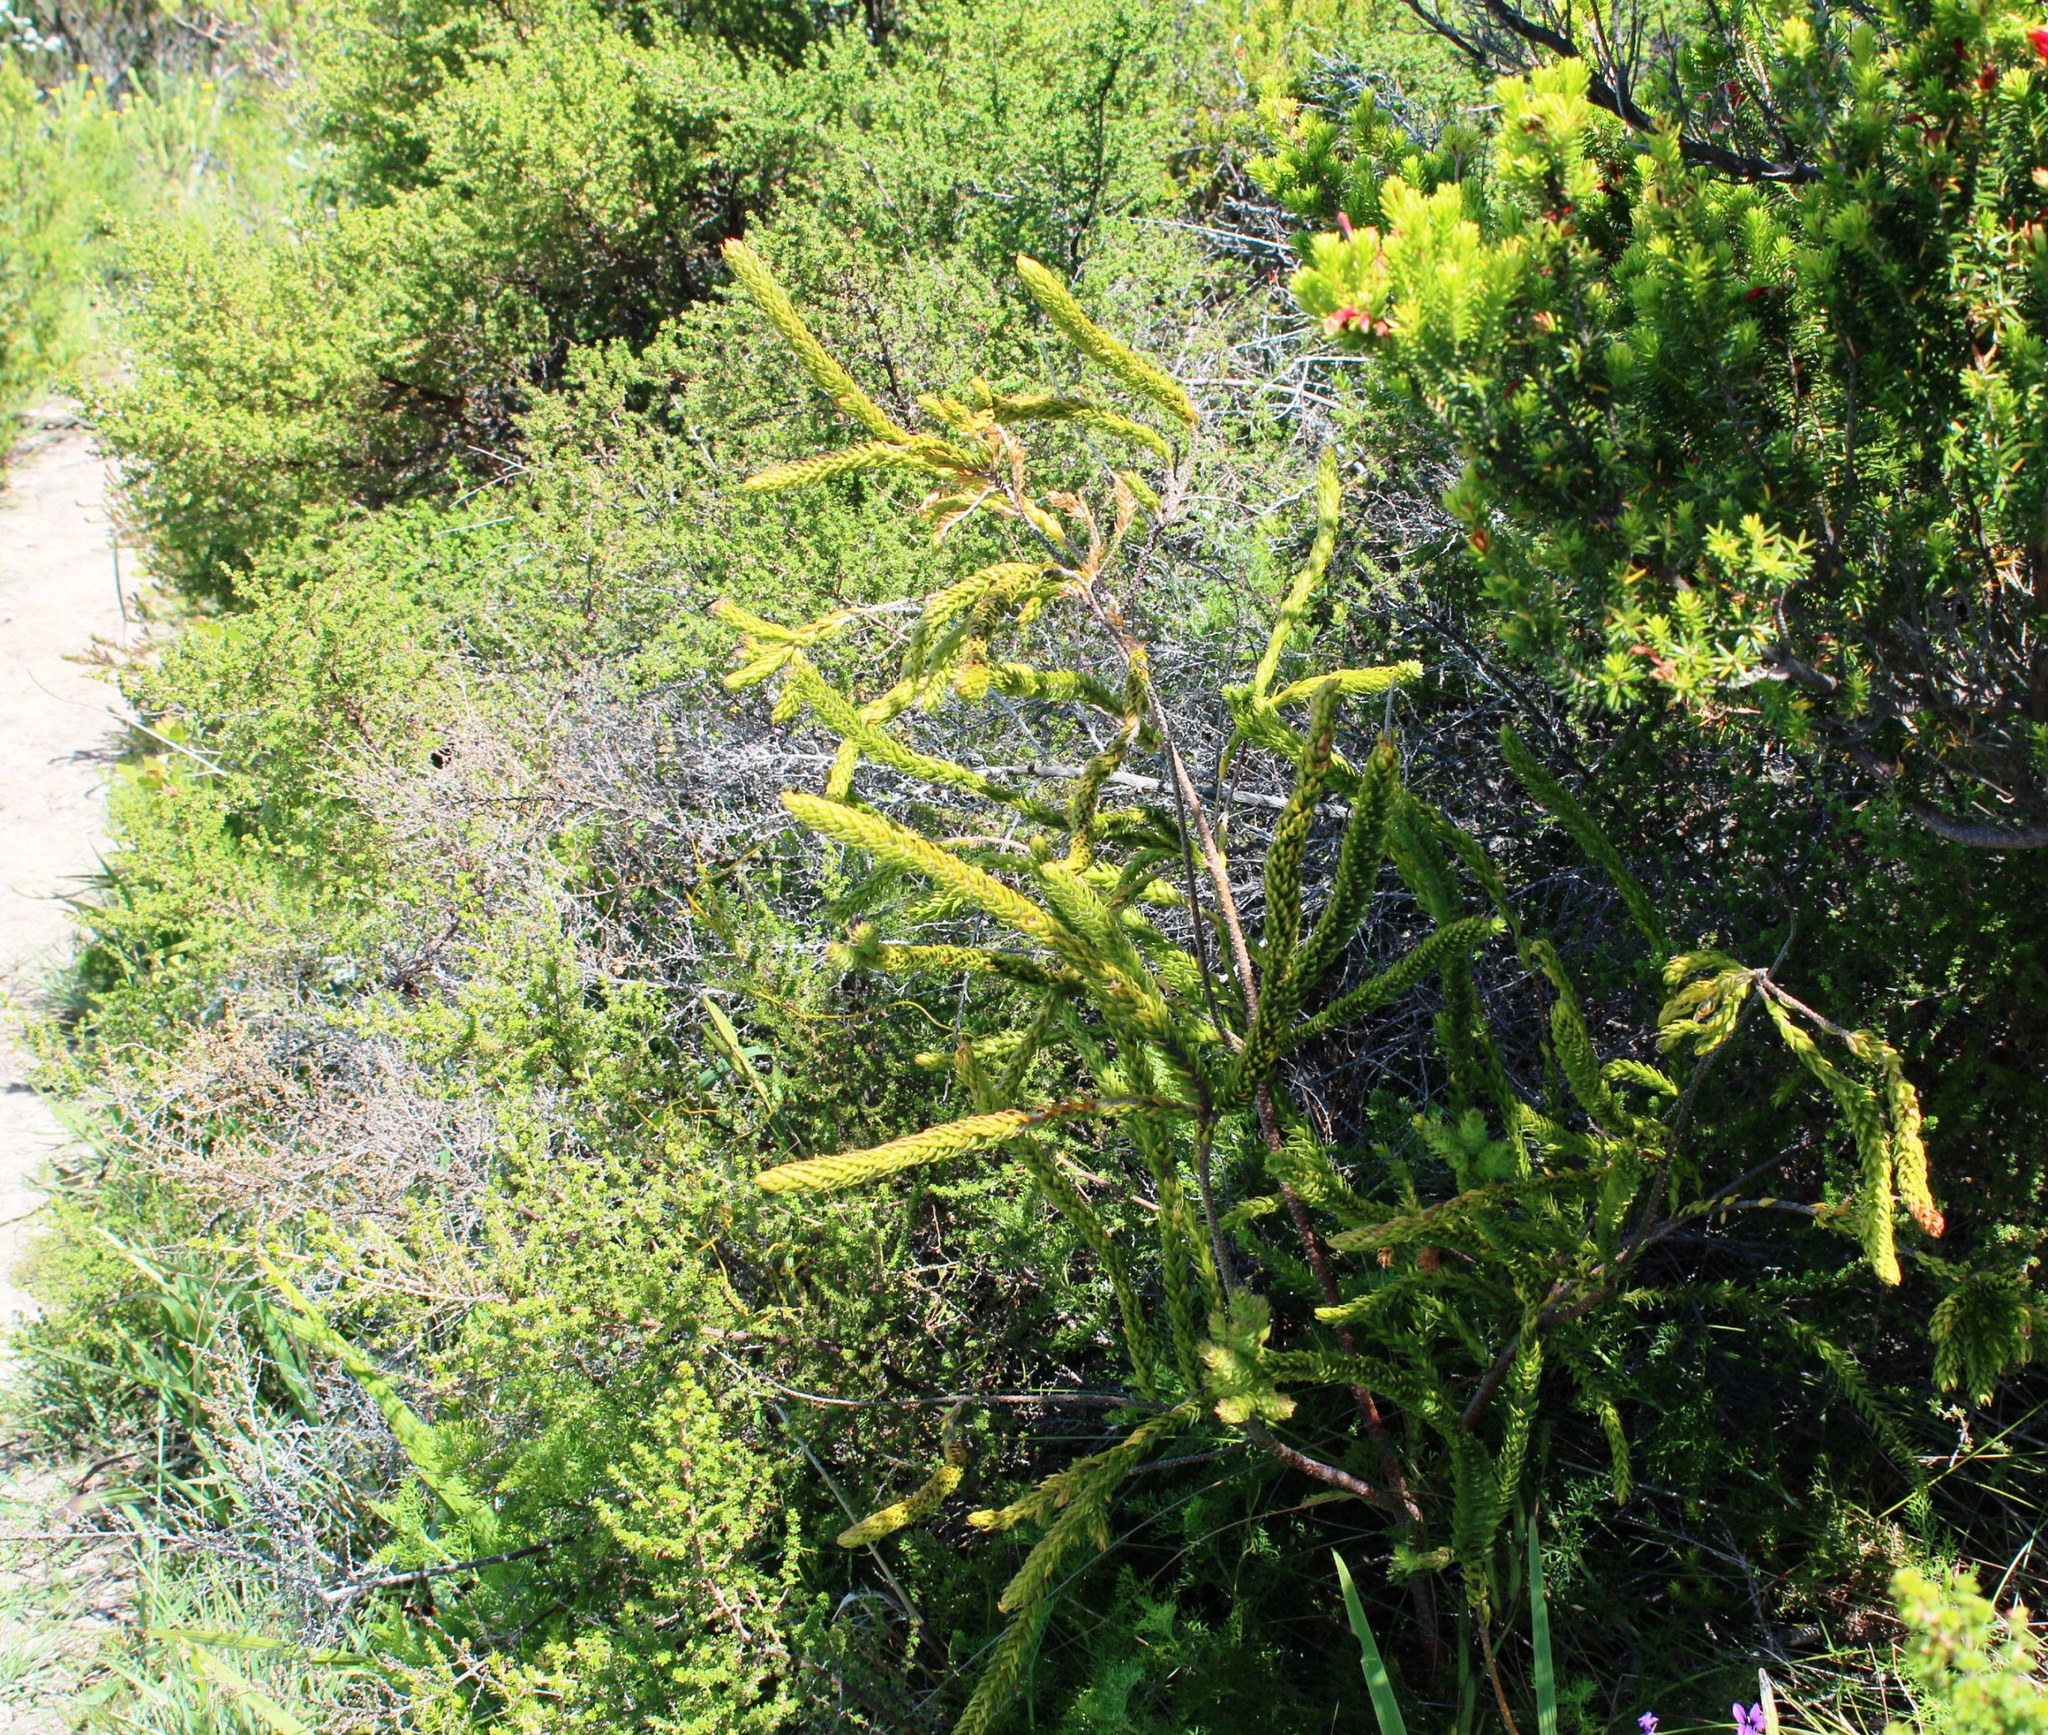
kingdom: Plantae
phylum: Tracheophyta
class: Magnoliopsida
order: Malvales
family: Thymelaeaceae
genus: Struthiola
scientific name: Struthiola hirsuta
